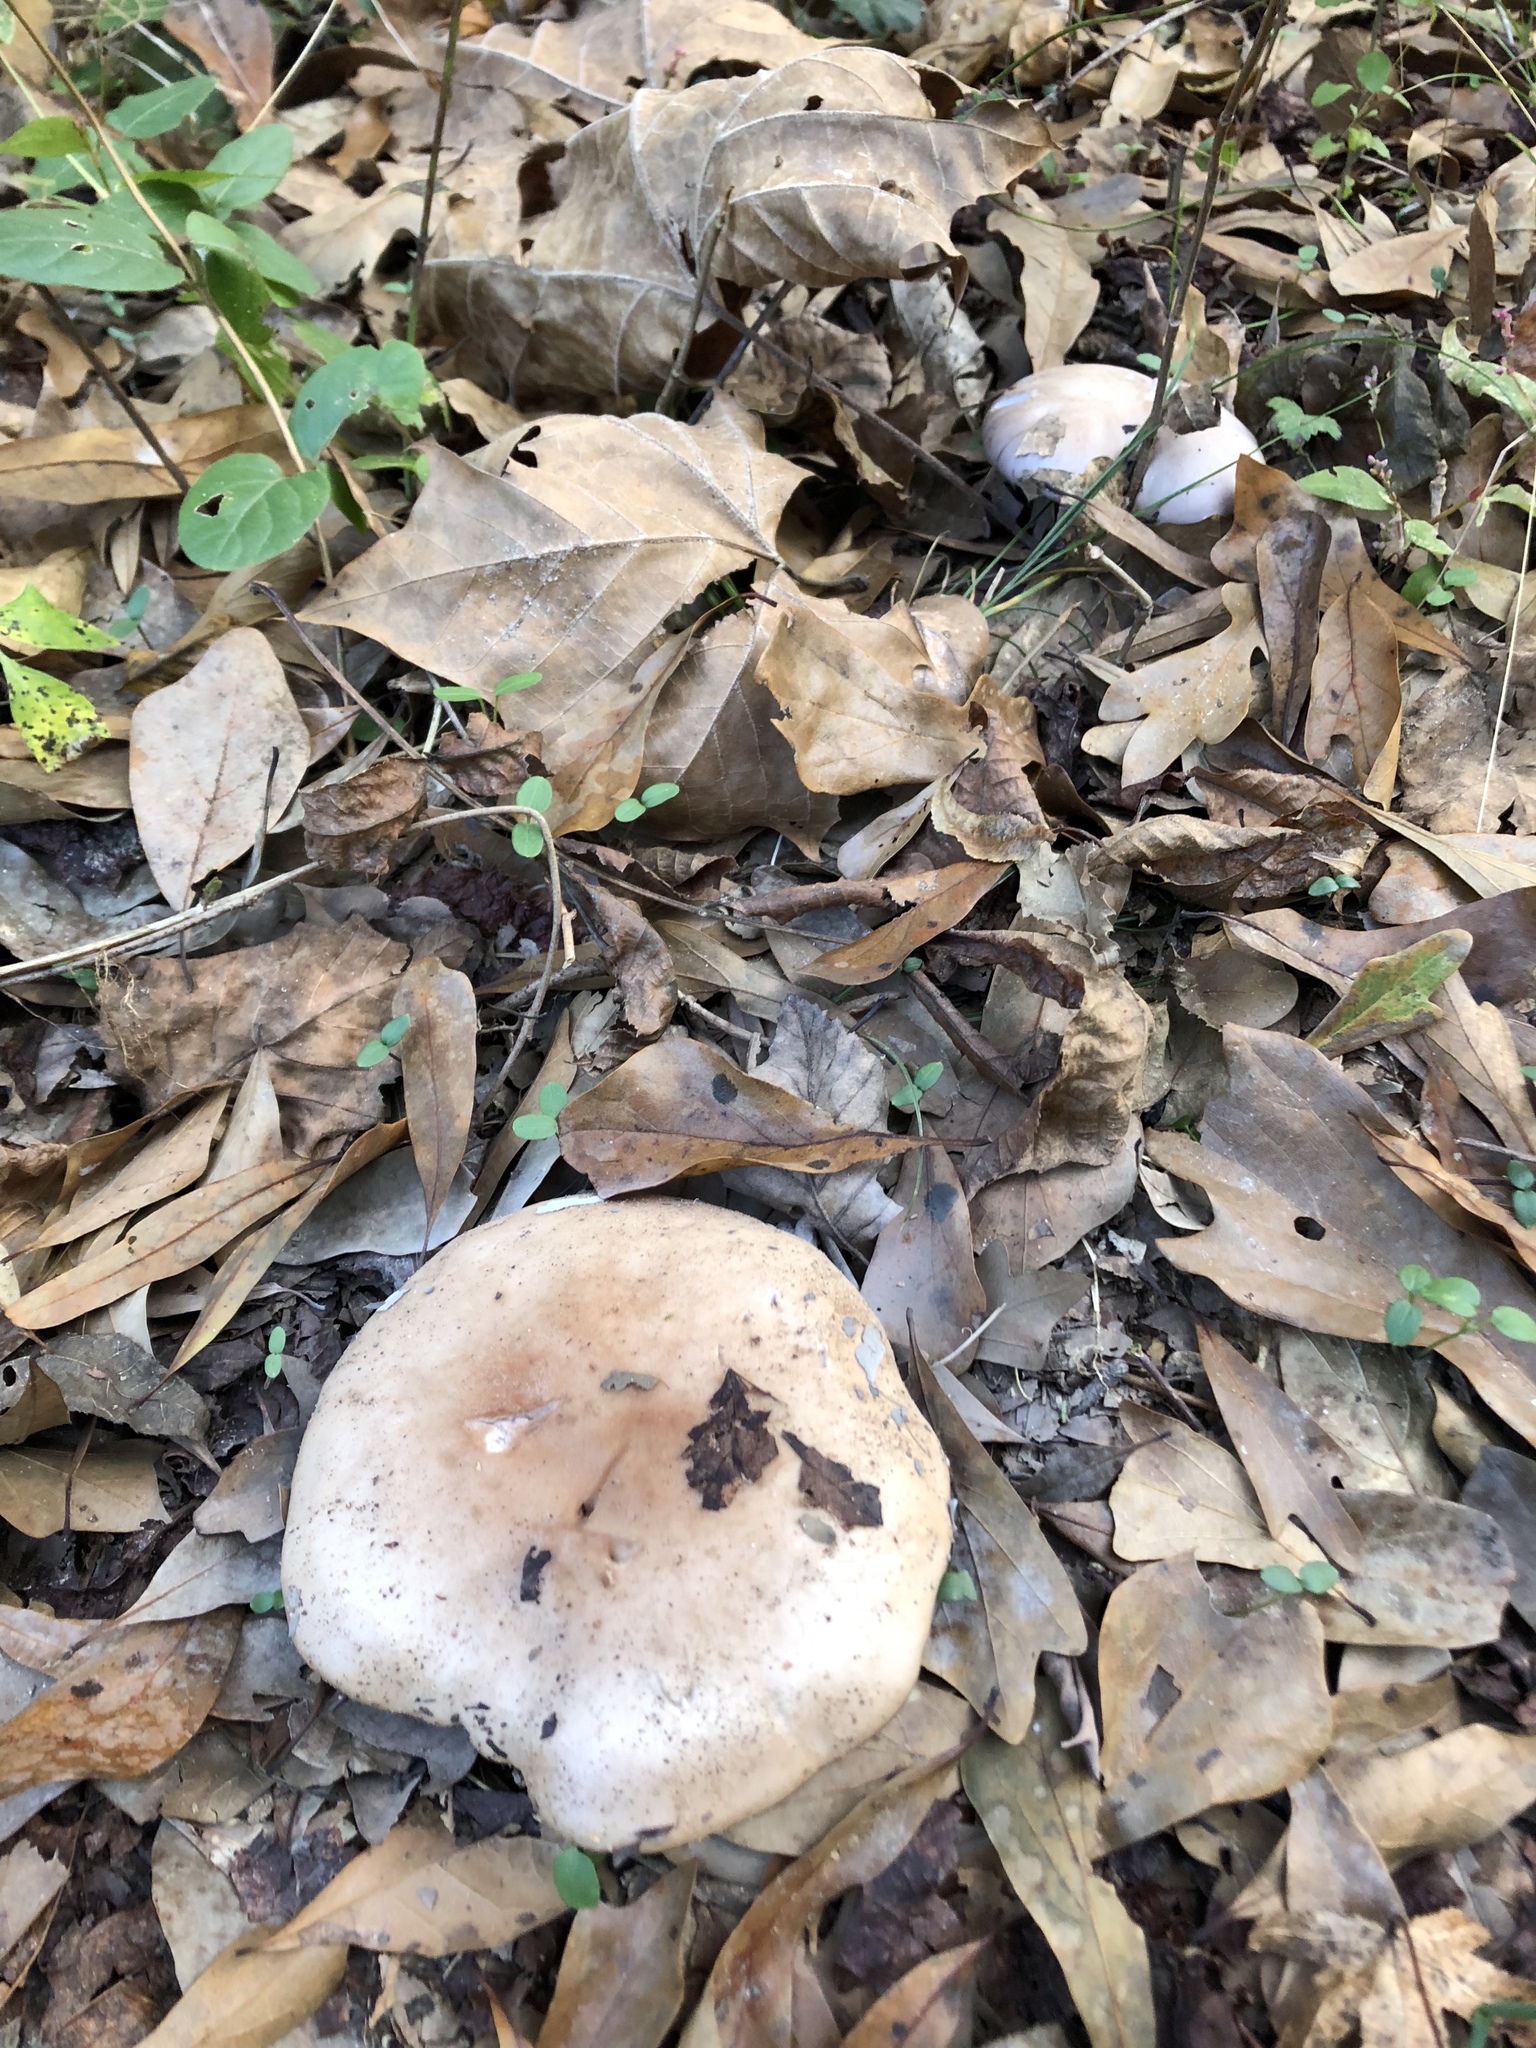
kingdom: Fungi
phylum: Basidiomycota
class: Agaricomycetes
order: Agaricales
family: Tricholomataceae
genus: Collybia
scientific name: Collybia
